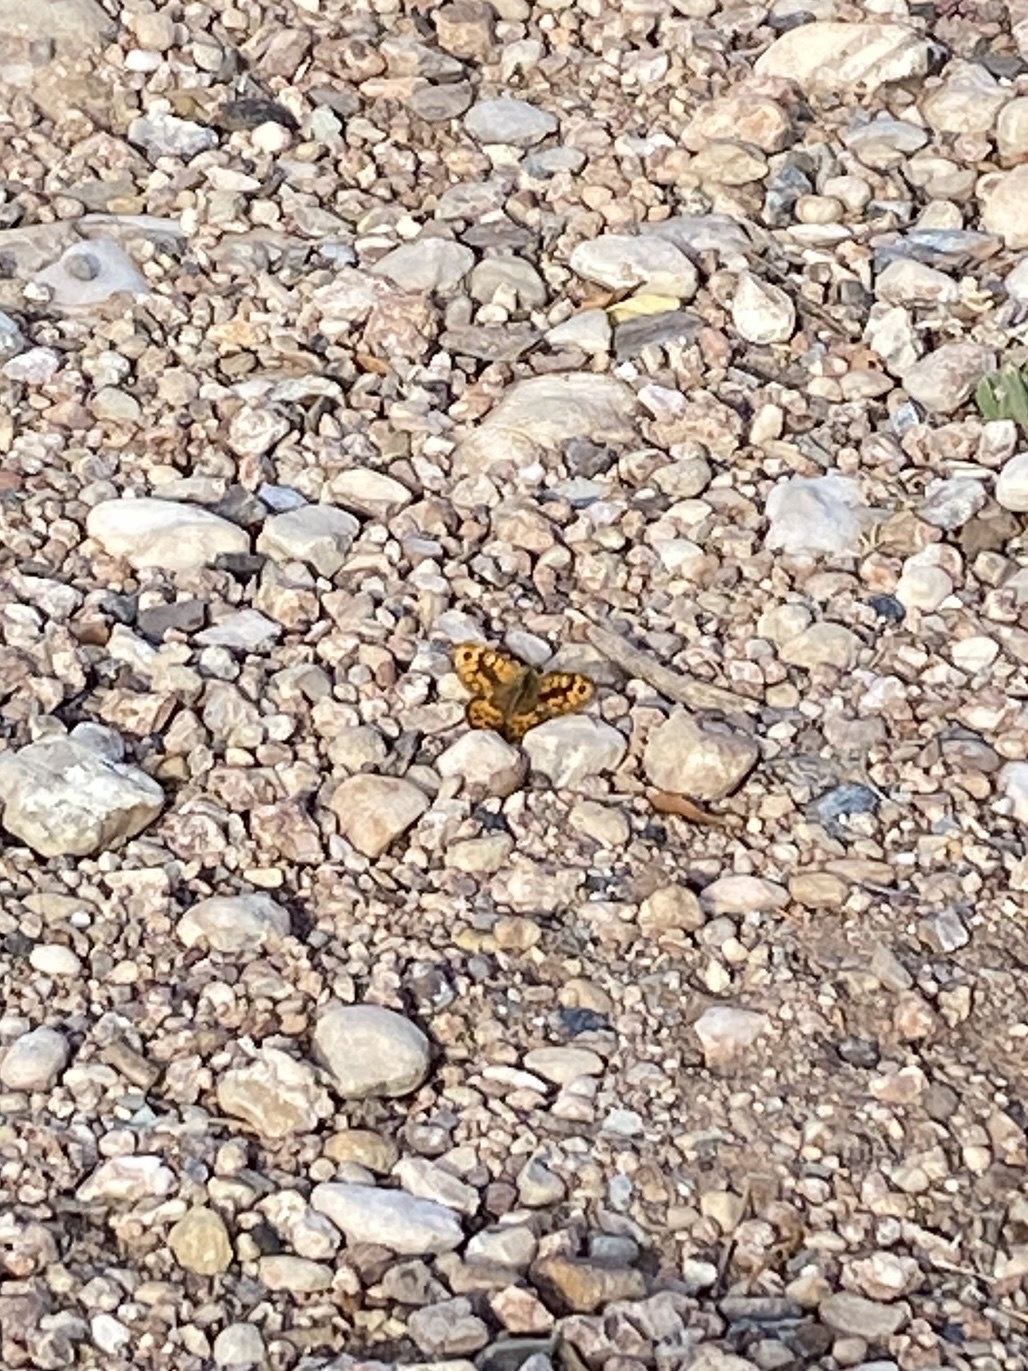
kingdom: Animalia
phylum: Arthropoda
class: Insecta
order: Lepidoptera
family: Nymphalidae
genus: Pararge
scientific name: Pararge Lasiommata megera
